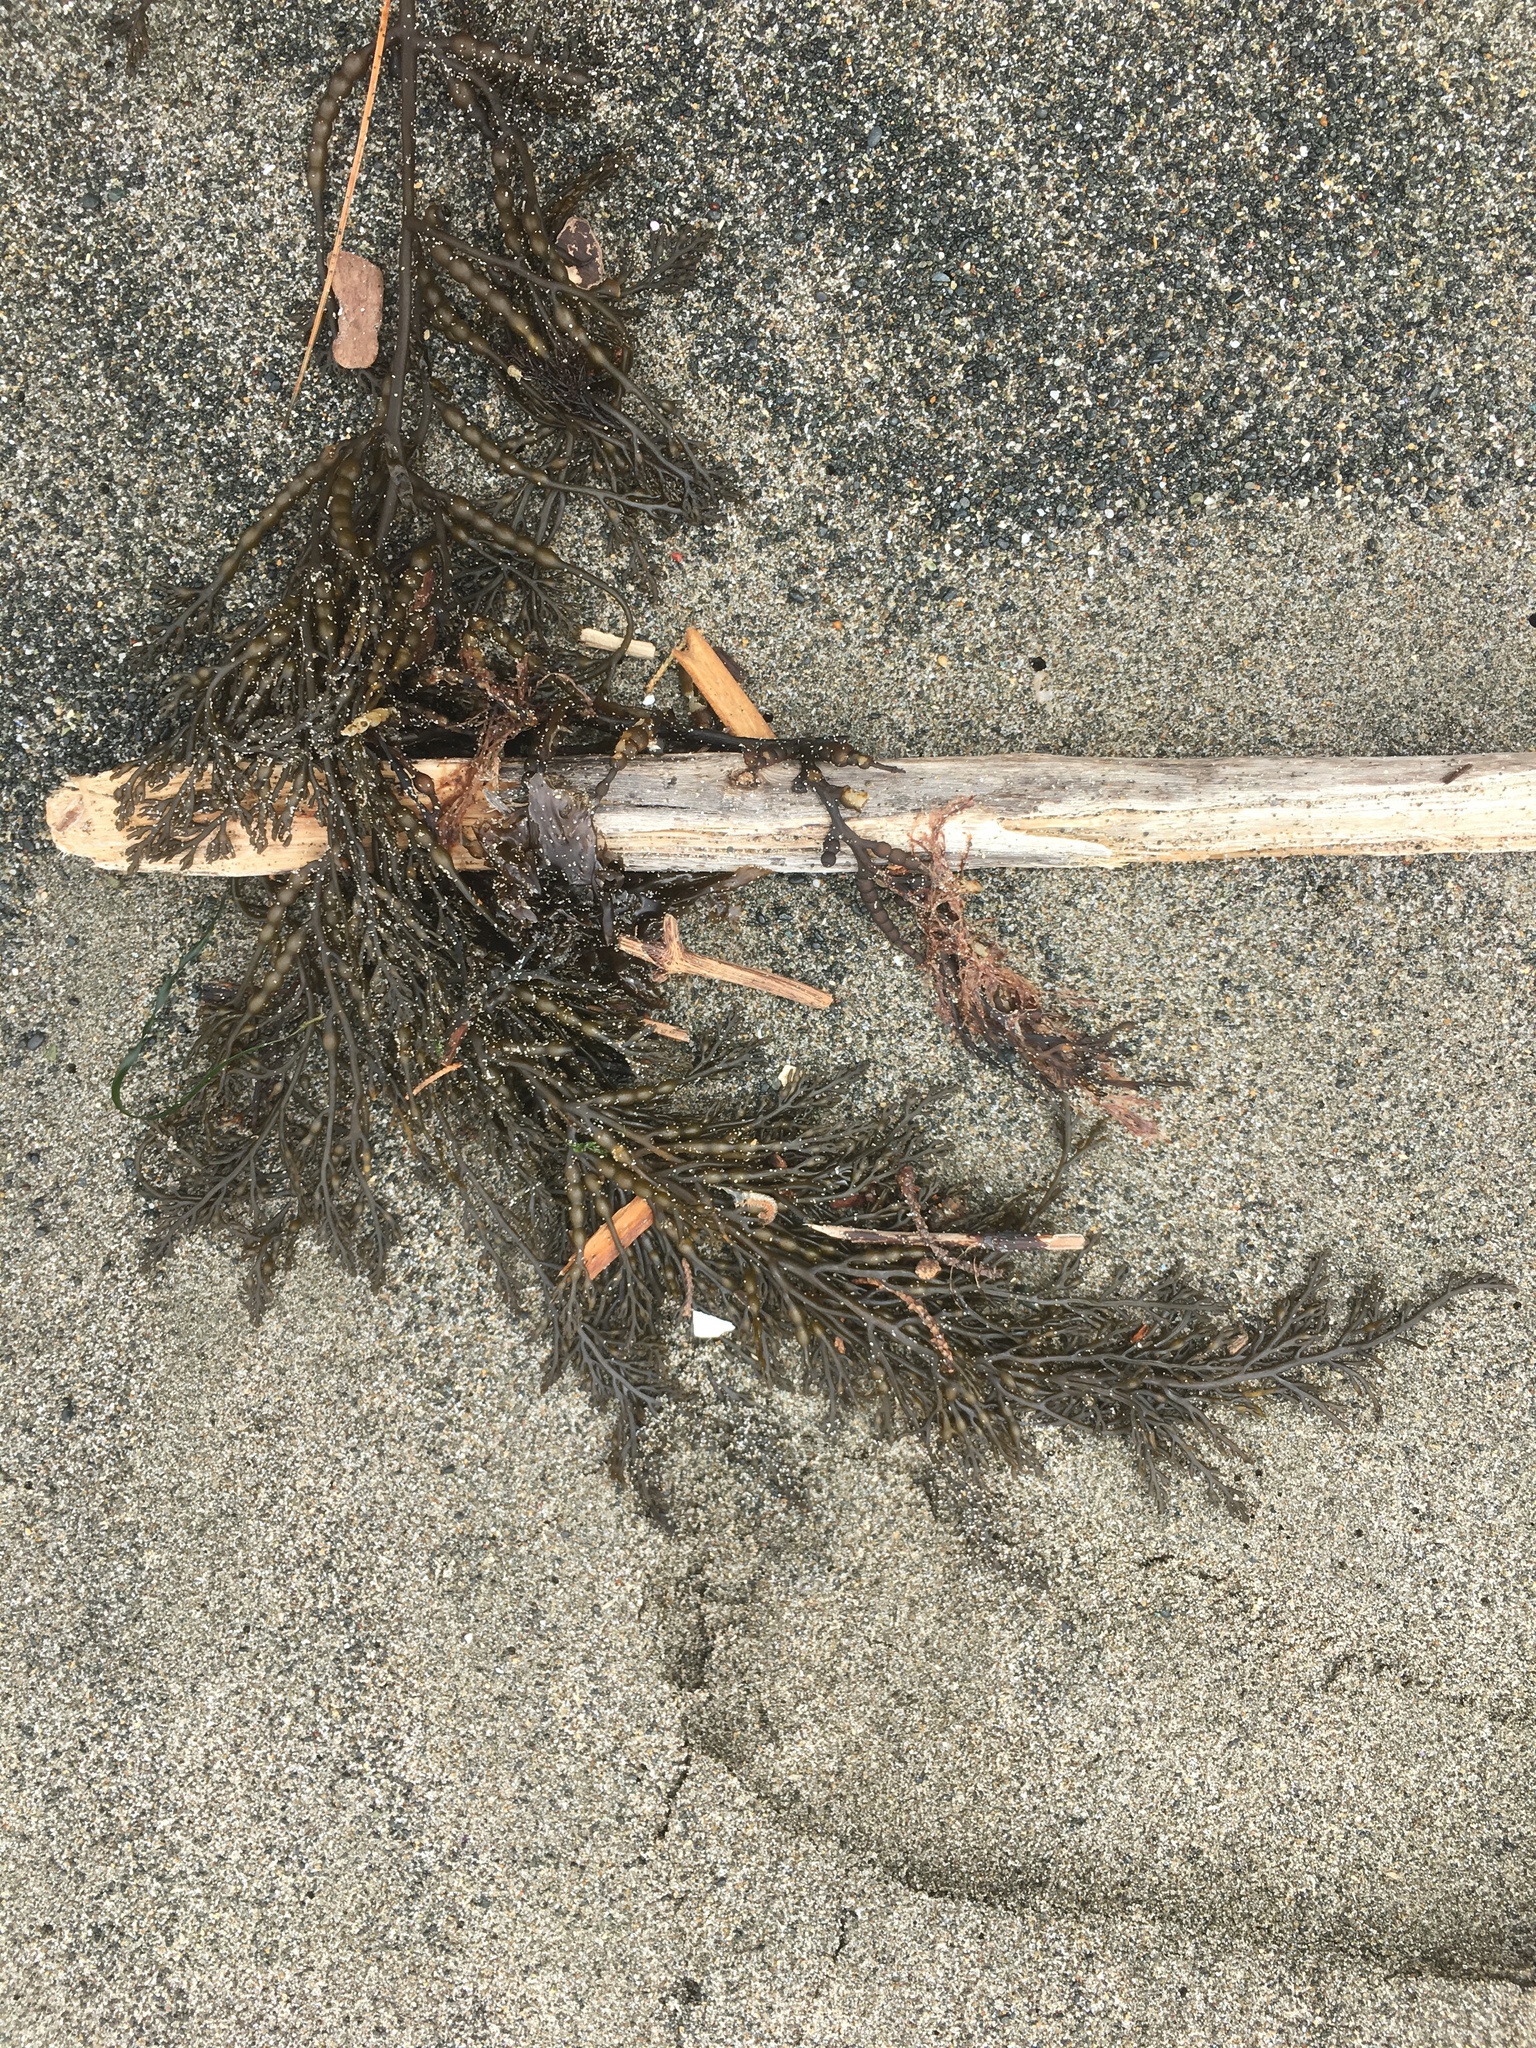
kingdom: Chromista
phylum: Ochrophyta
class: Phaeophyceae
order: Fucales
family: Sargassaceae
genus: Stephanocystis
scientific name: Stephanocystis
